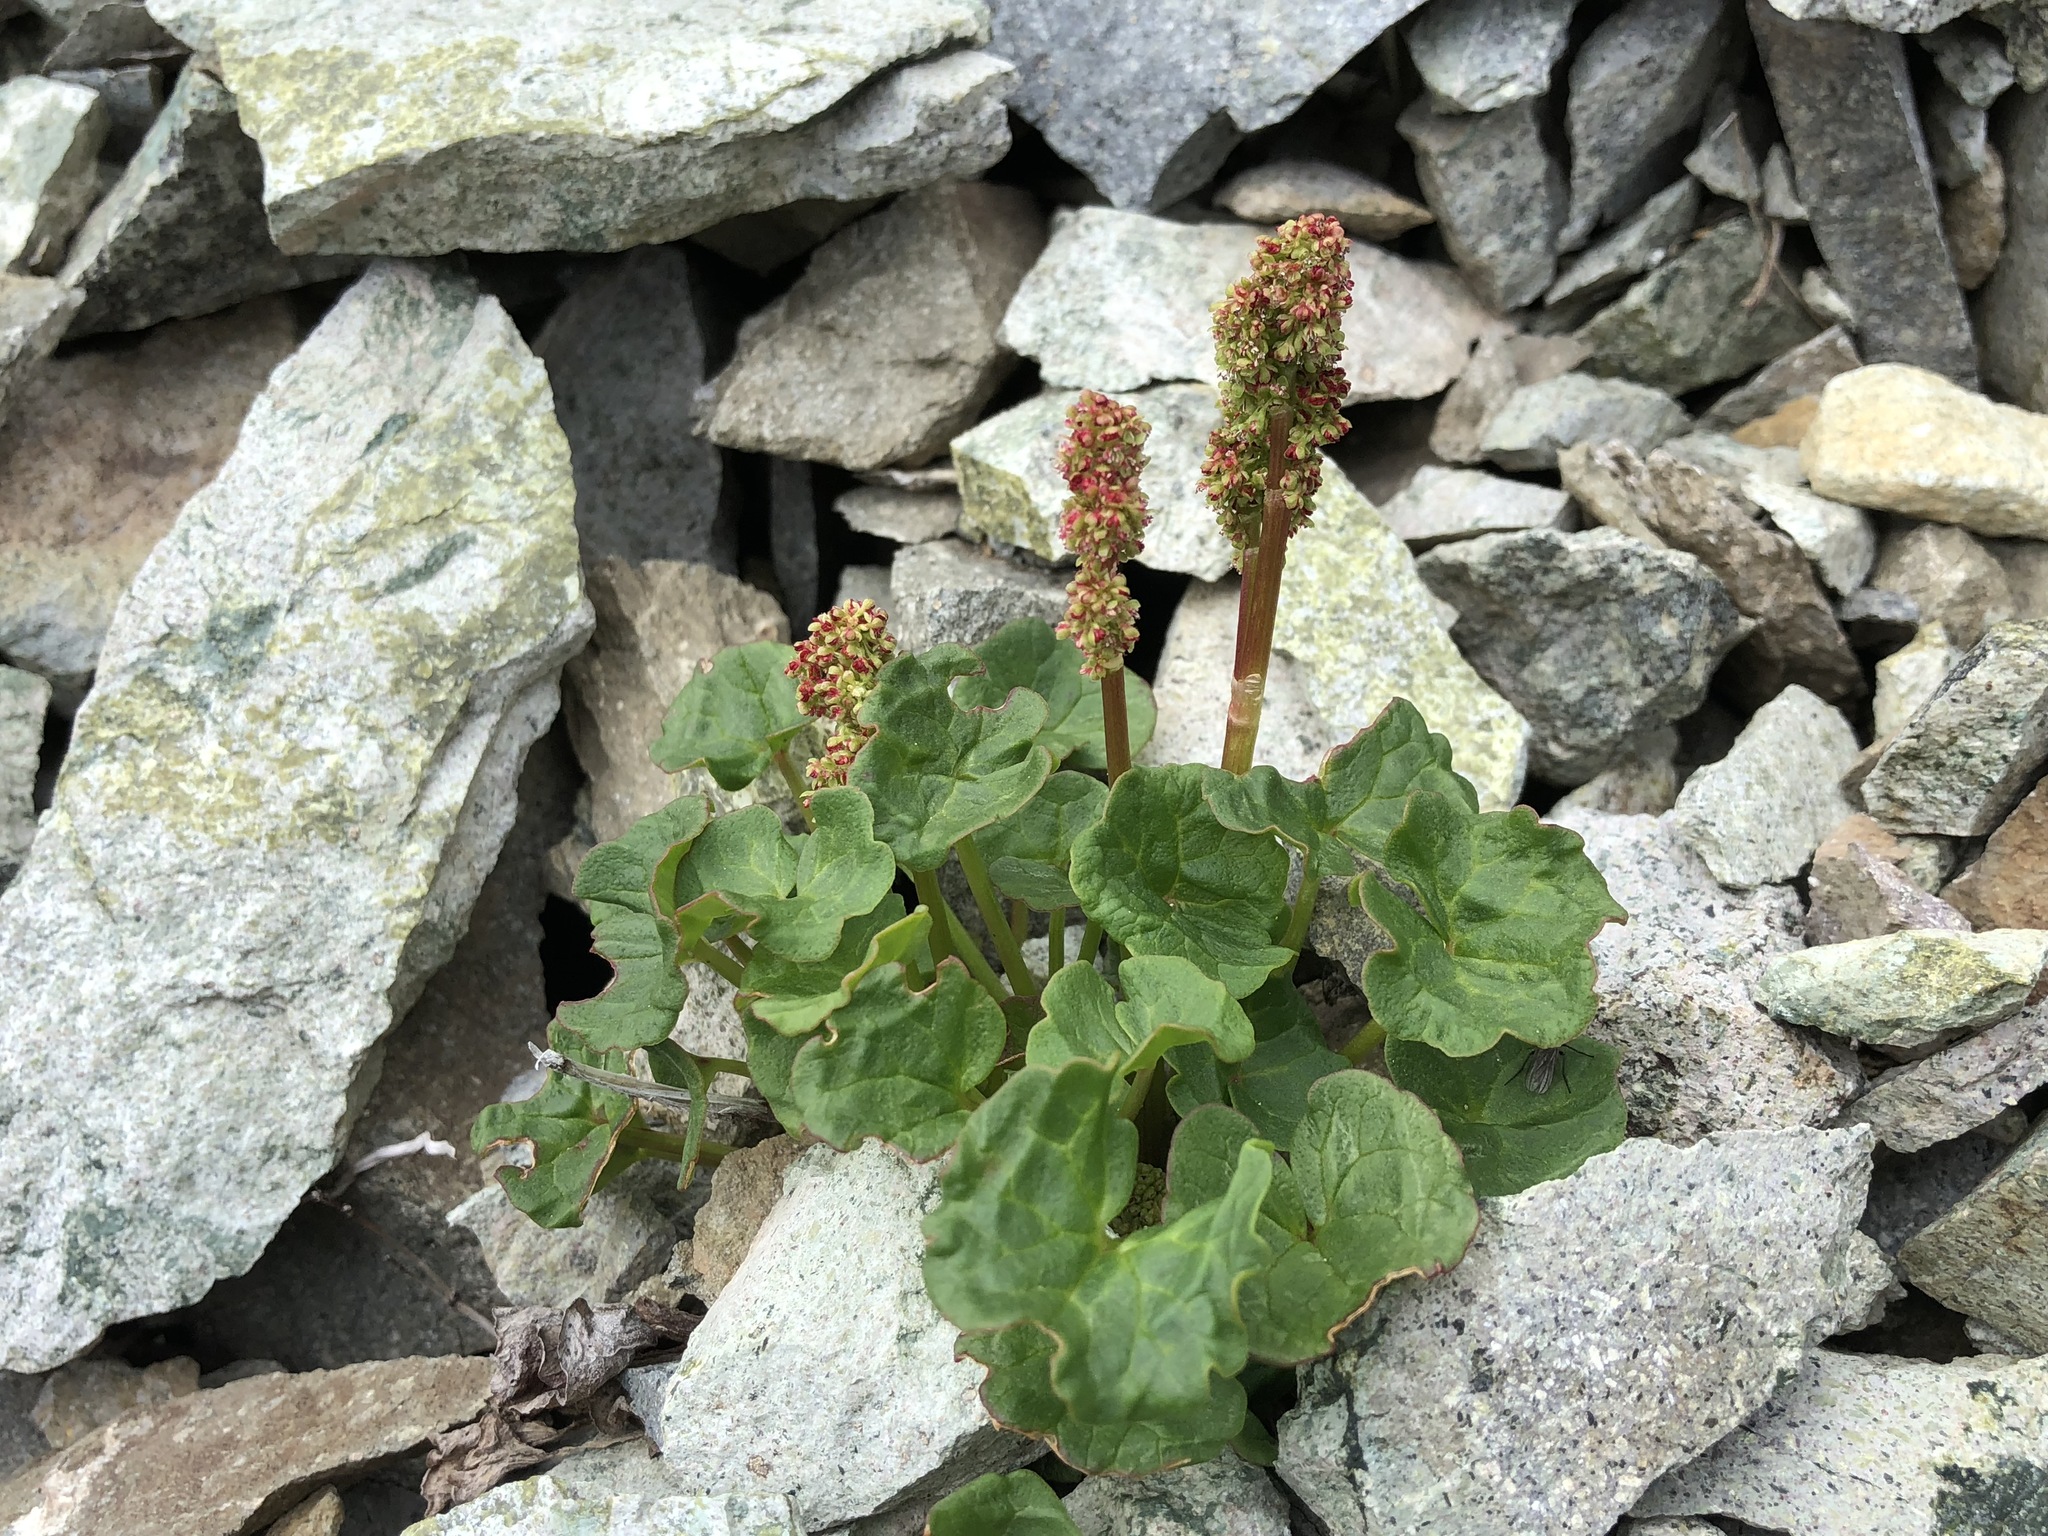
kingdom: Plantae
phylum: Tracheophyta
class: Magnoliopsida
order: Caryophyllales
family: Polygonaceae
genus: Oxyria
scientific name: Oxyria digyna
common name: Alpine mountain-sorrel
